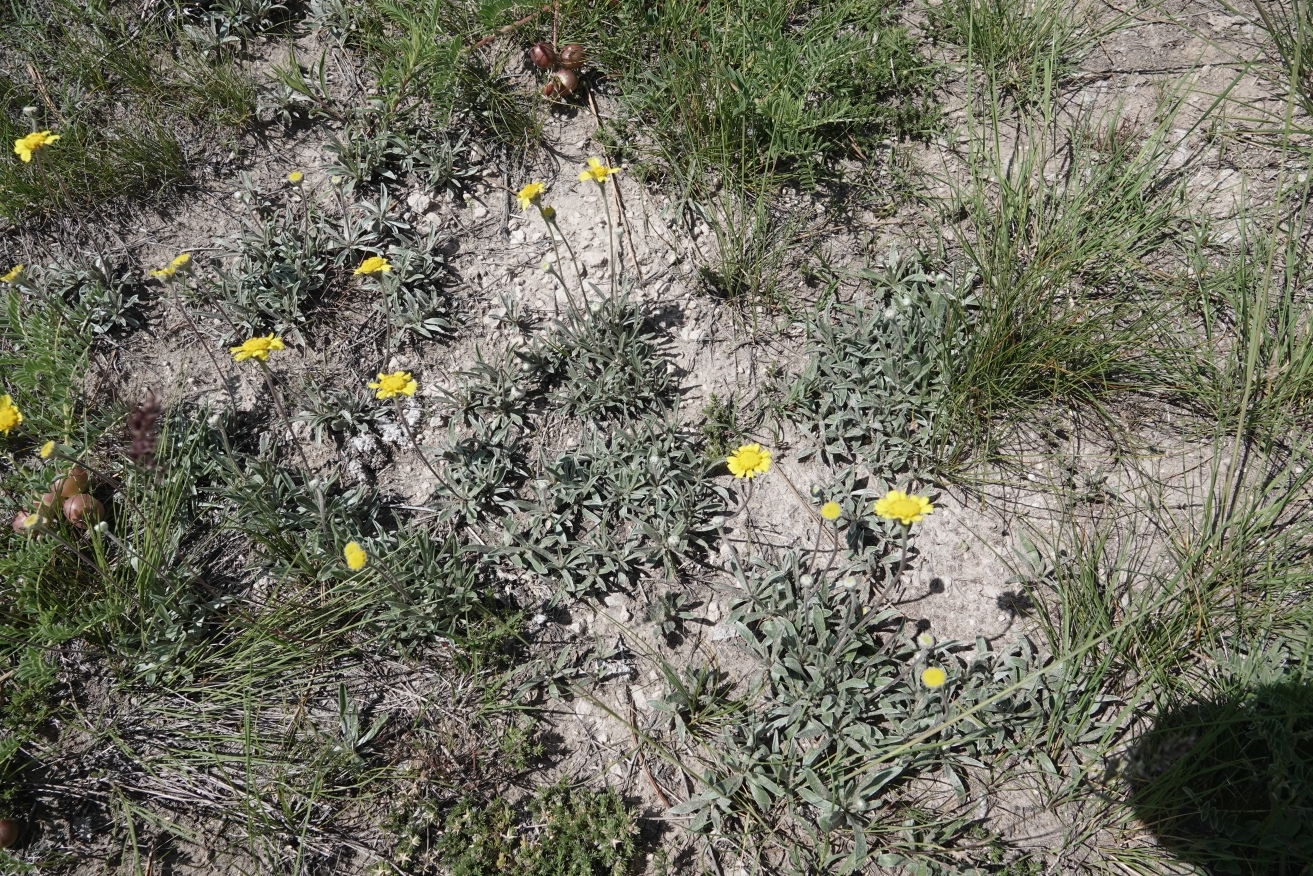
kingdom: Plantae
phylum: Tracheophyta
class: Magnoliopsida
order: Asterales
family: Asteraceae
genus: Tetraneuris
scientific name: Tetraneuris acaulis
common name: Butte marigold
